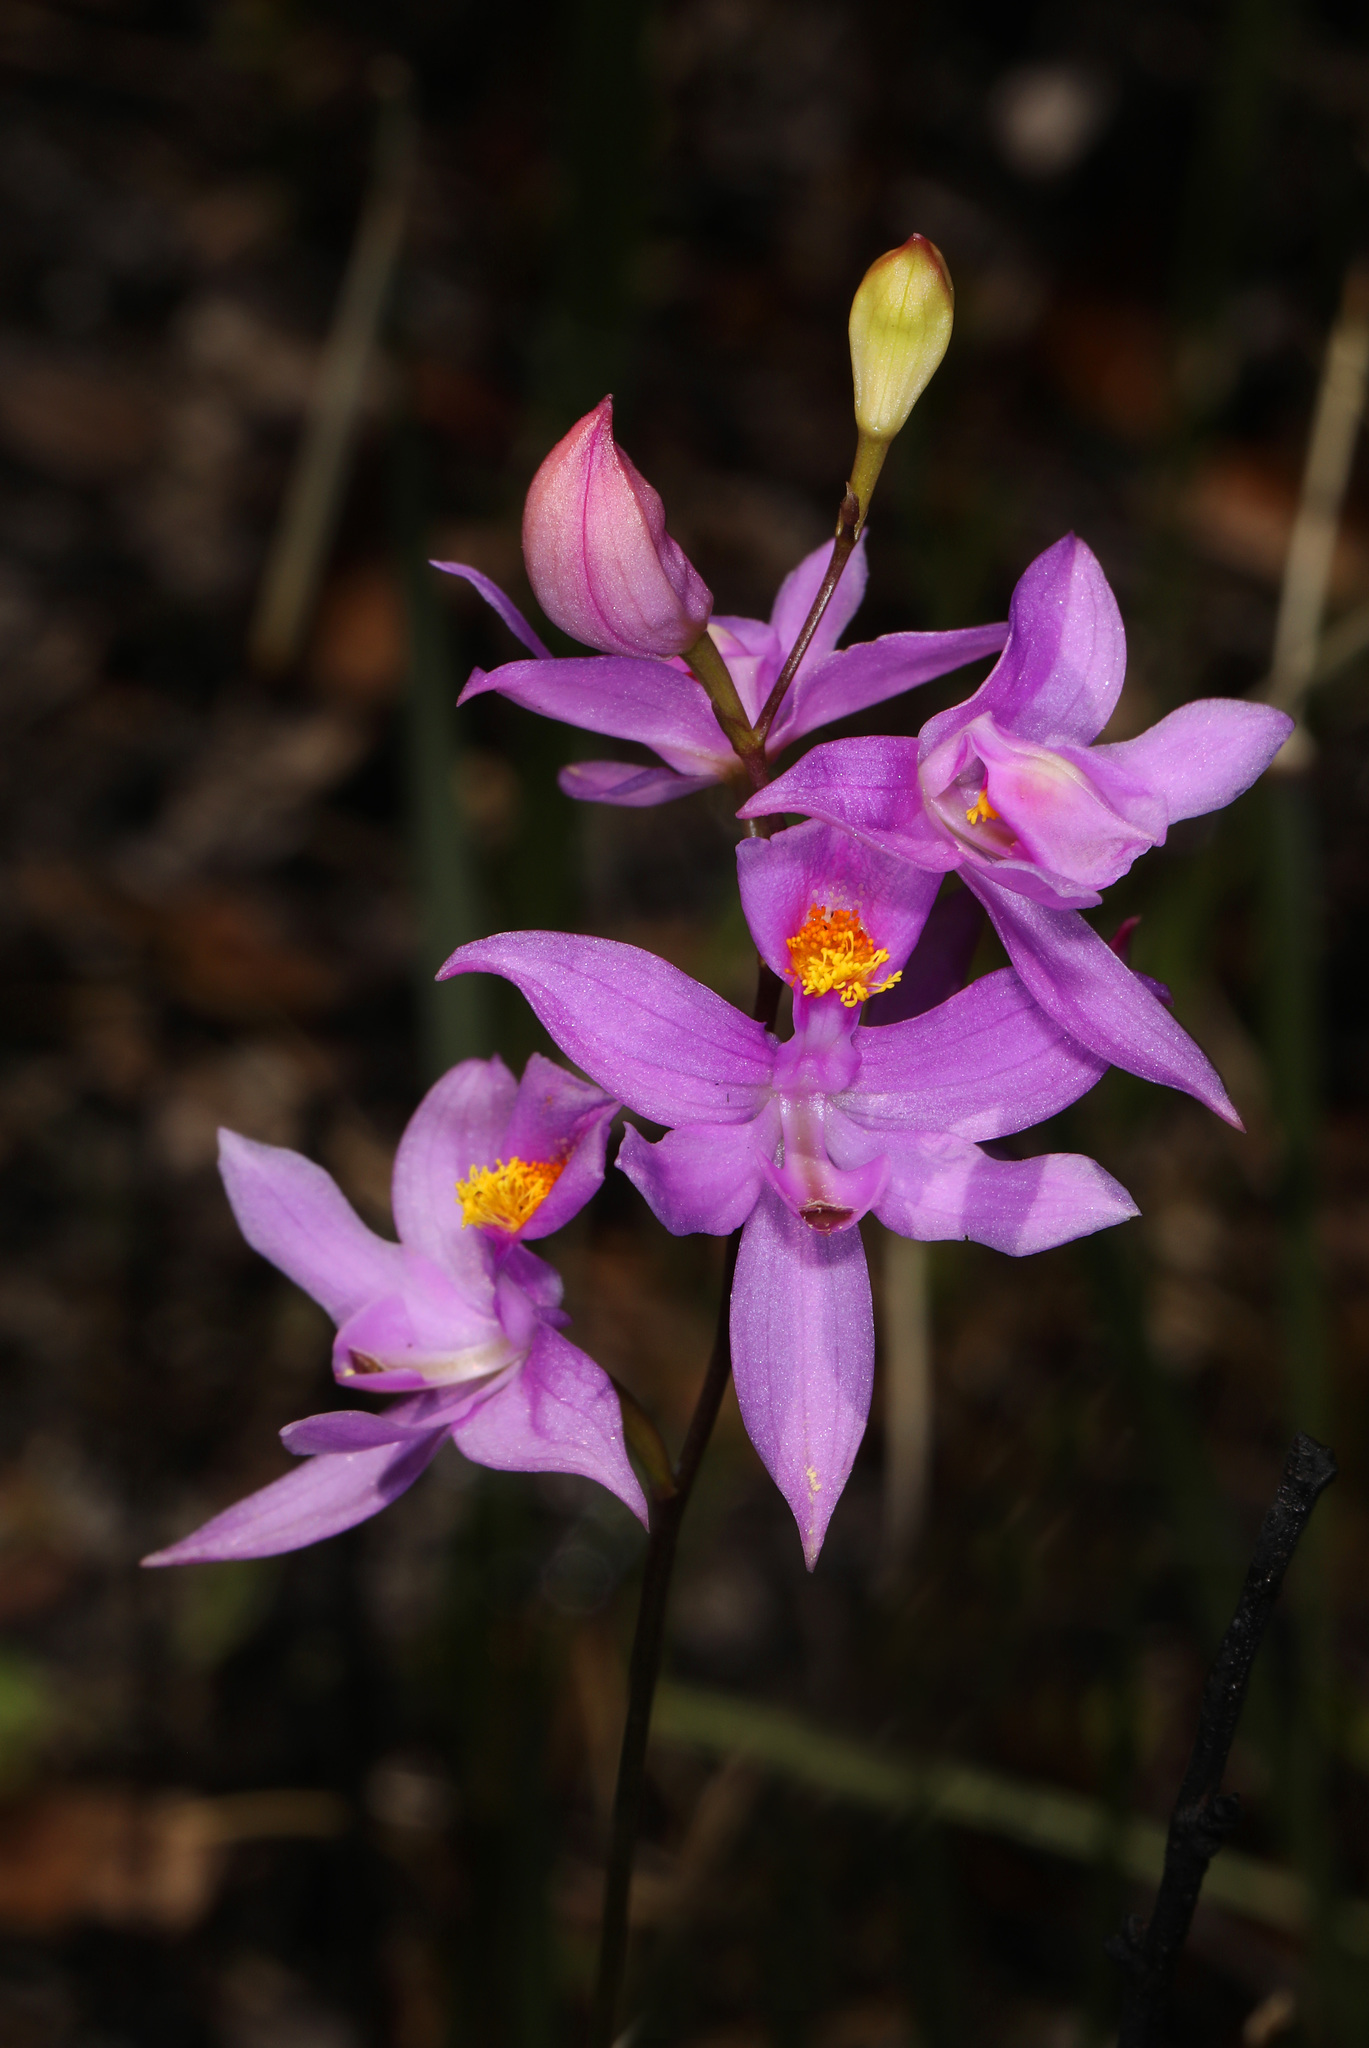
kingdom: Plantae
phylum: Tracheophyta
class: Liliopsida
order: Asparagales
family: Orchidaceae
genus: Calopogon
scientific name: Calopogon barbatus
